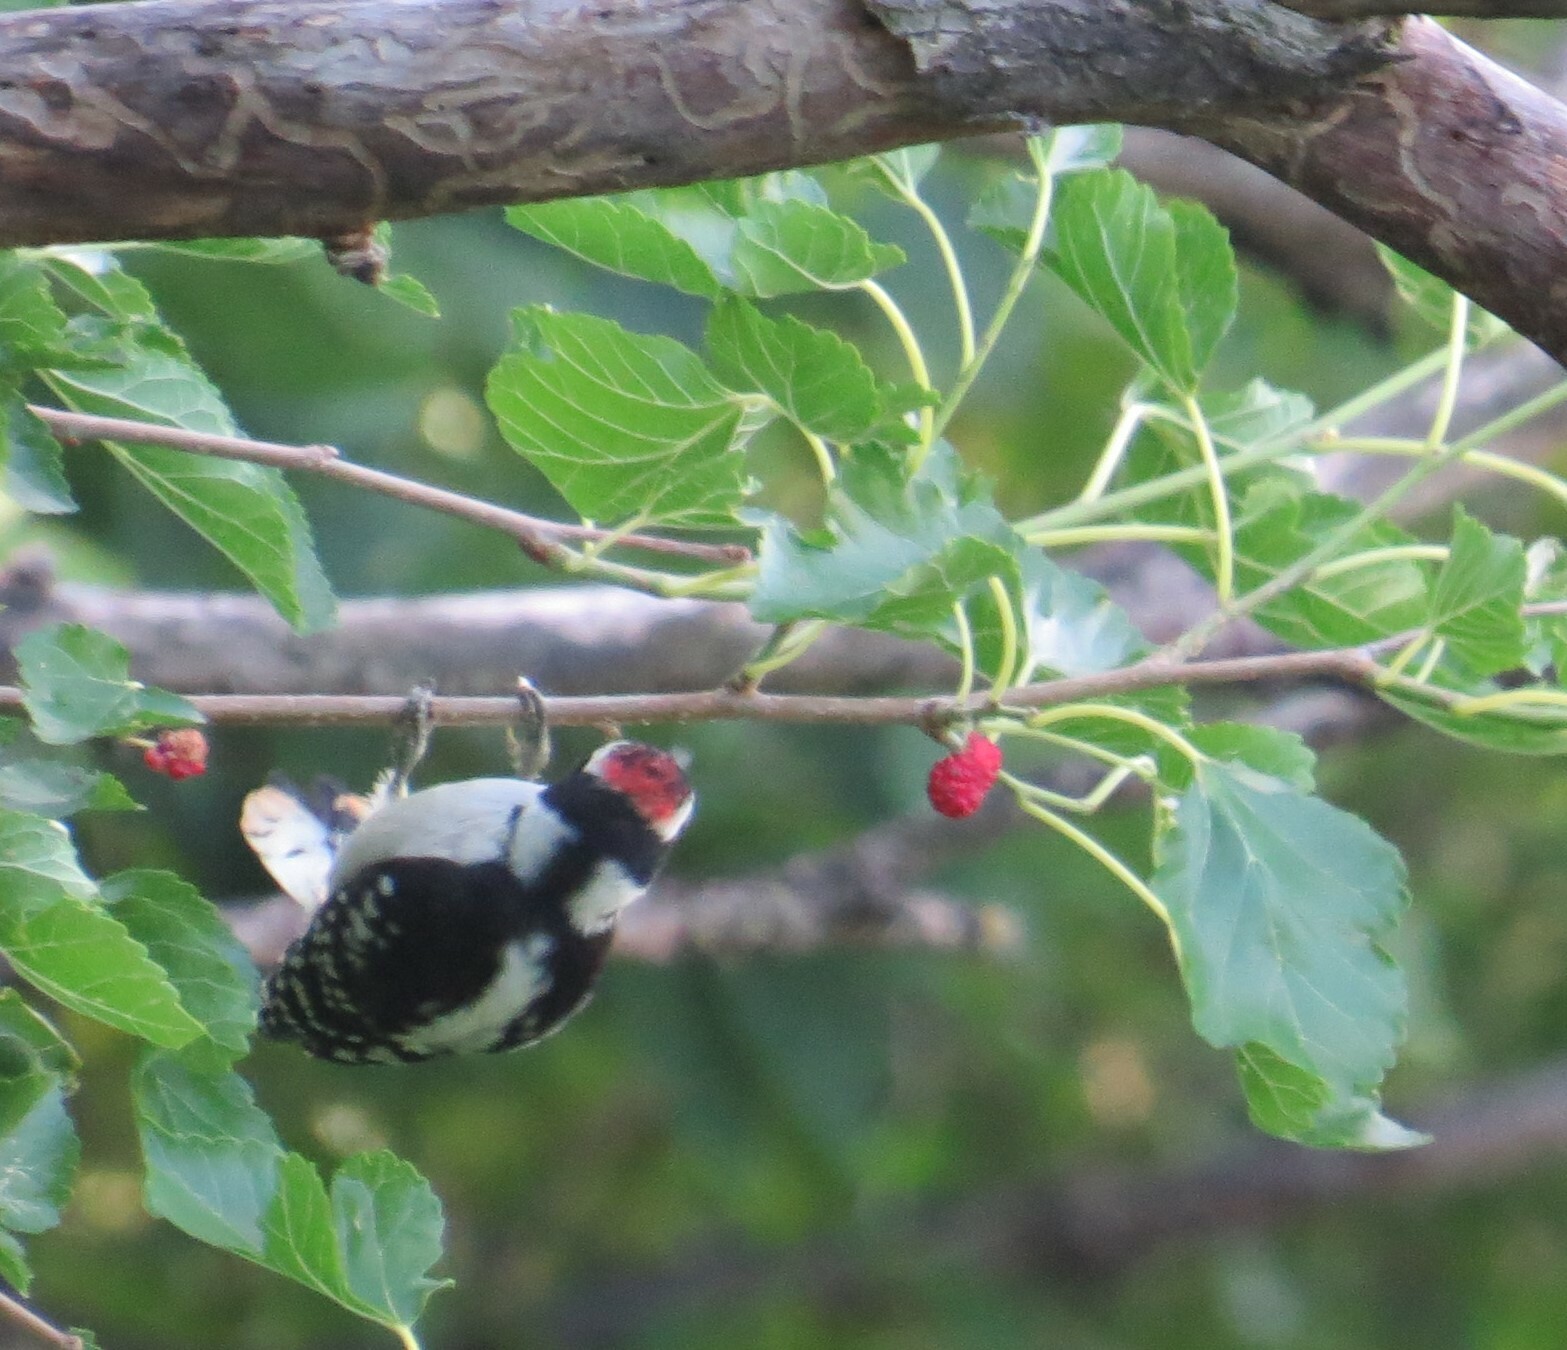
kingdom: Animalia
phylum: Chordata
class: Aves
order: Piciformes
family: Picidae
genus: Dryobates
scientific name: Dryobates pubescens
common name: Downy woodpecker
